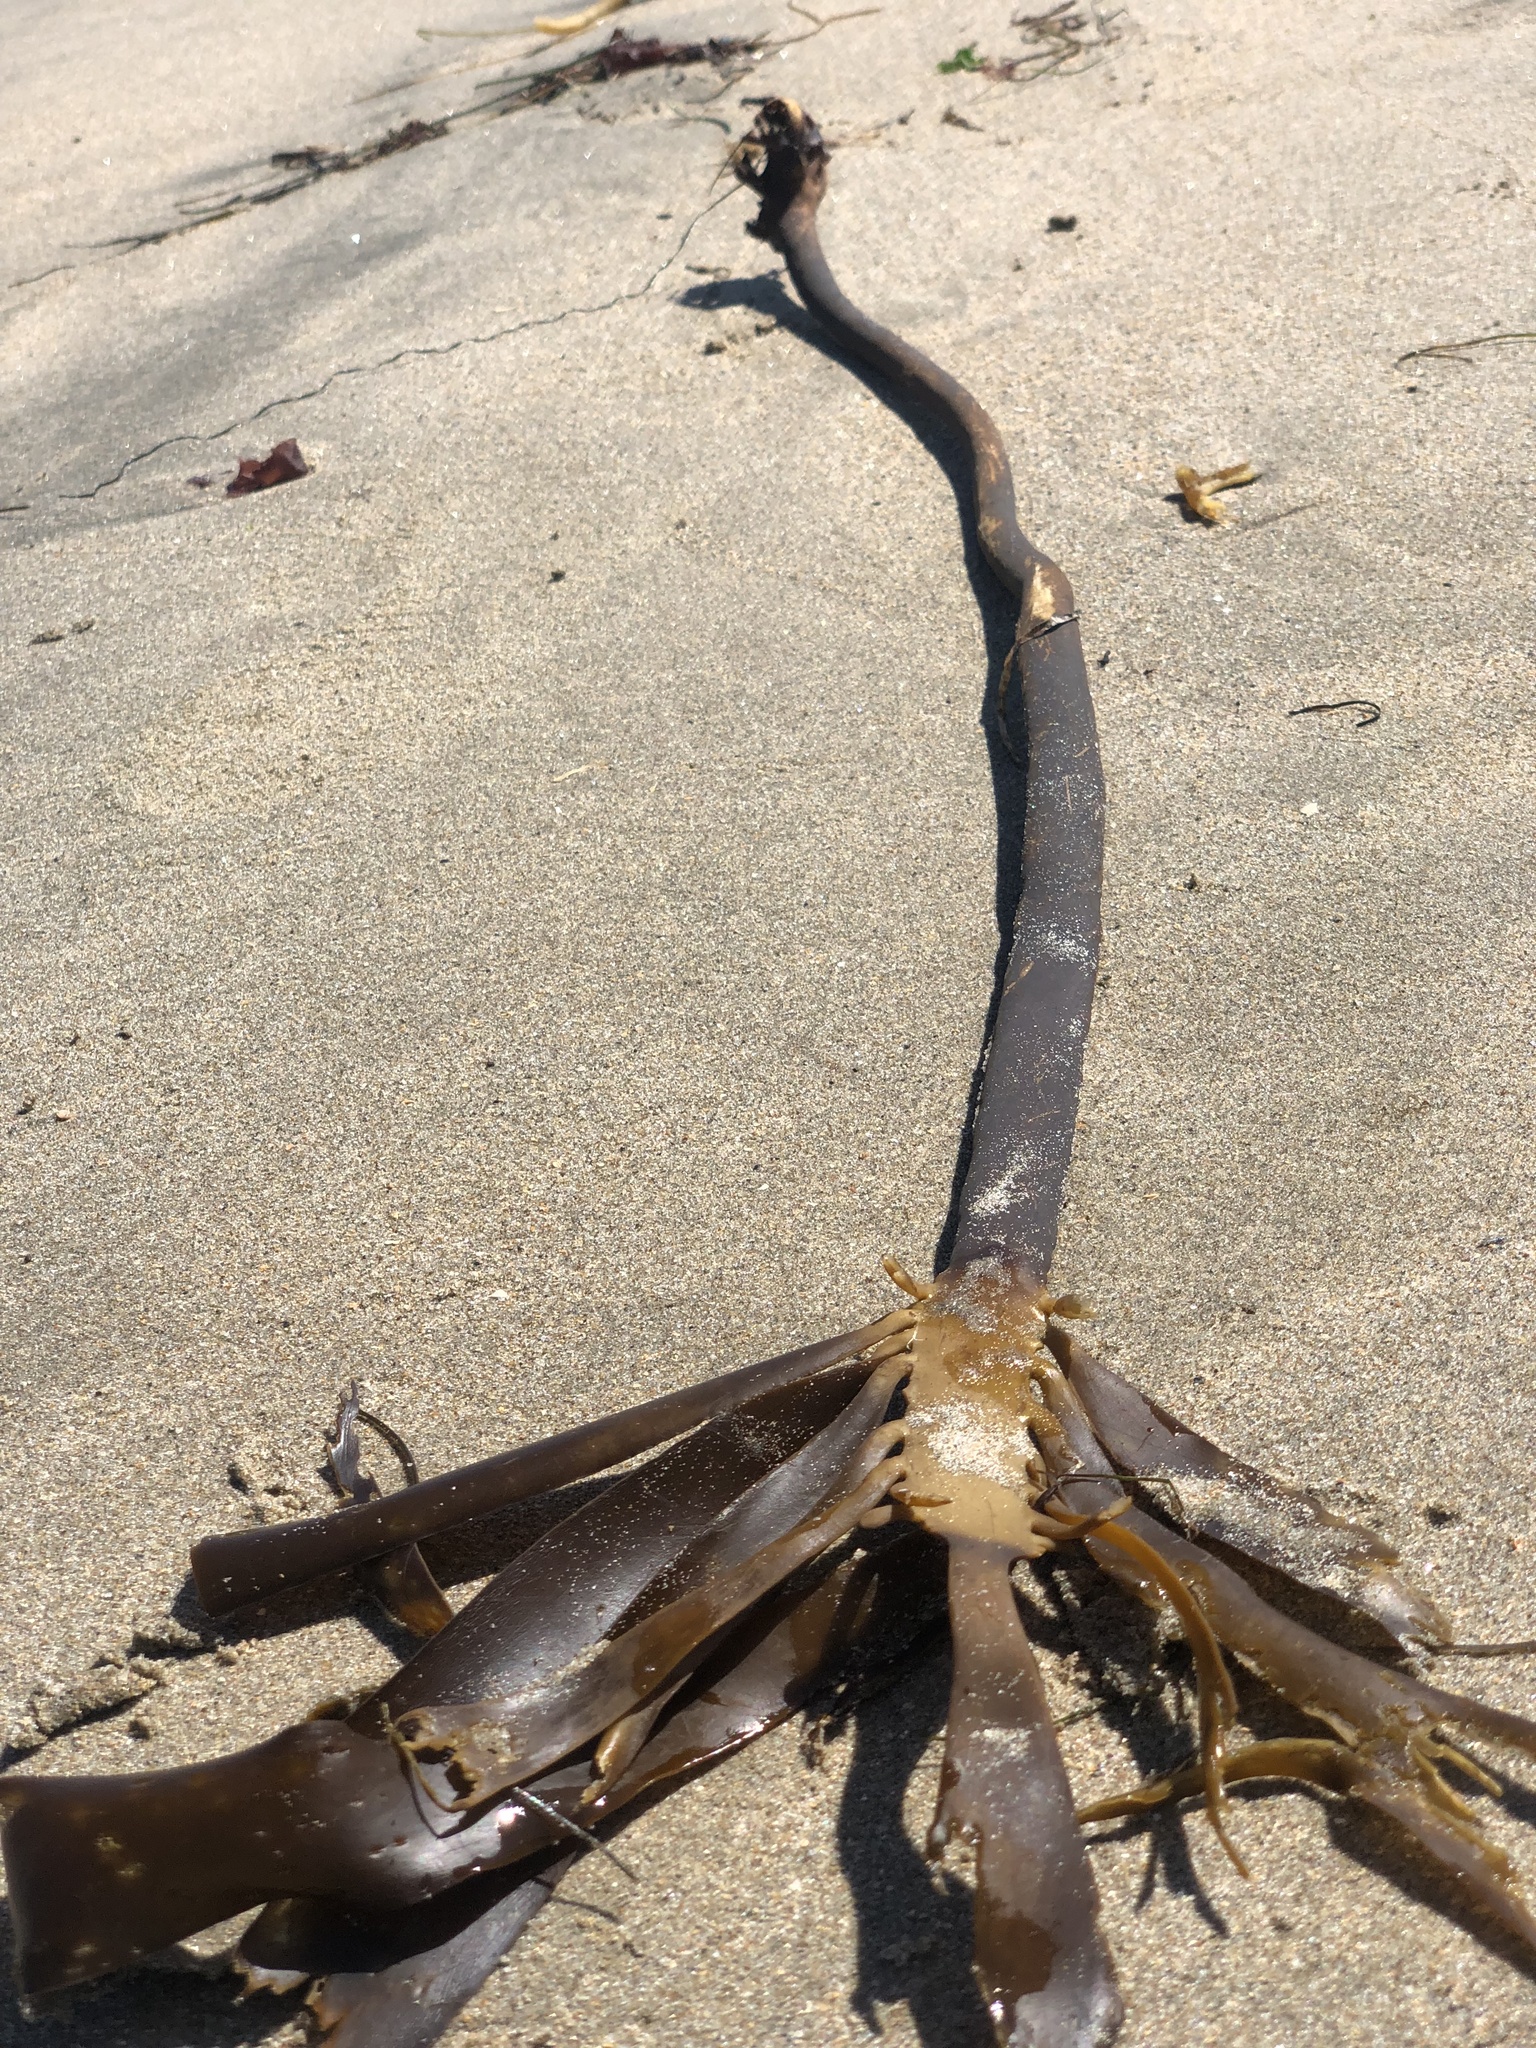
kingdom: Chromista
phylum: Ochrophyta
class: Phaeophyceae
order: Laminariales
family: Alariaceae
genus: Pterygophora
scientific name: Pterygophora californica
